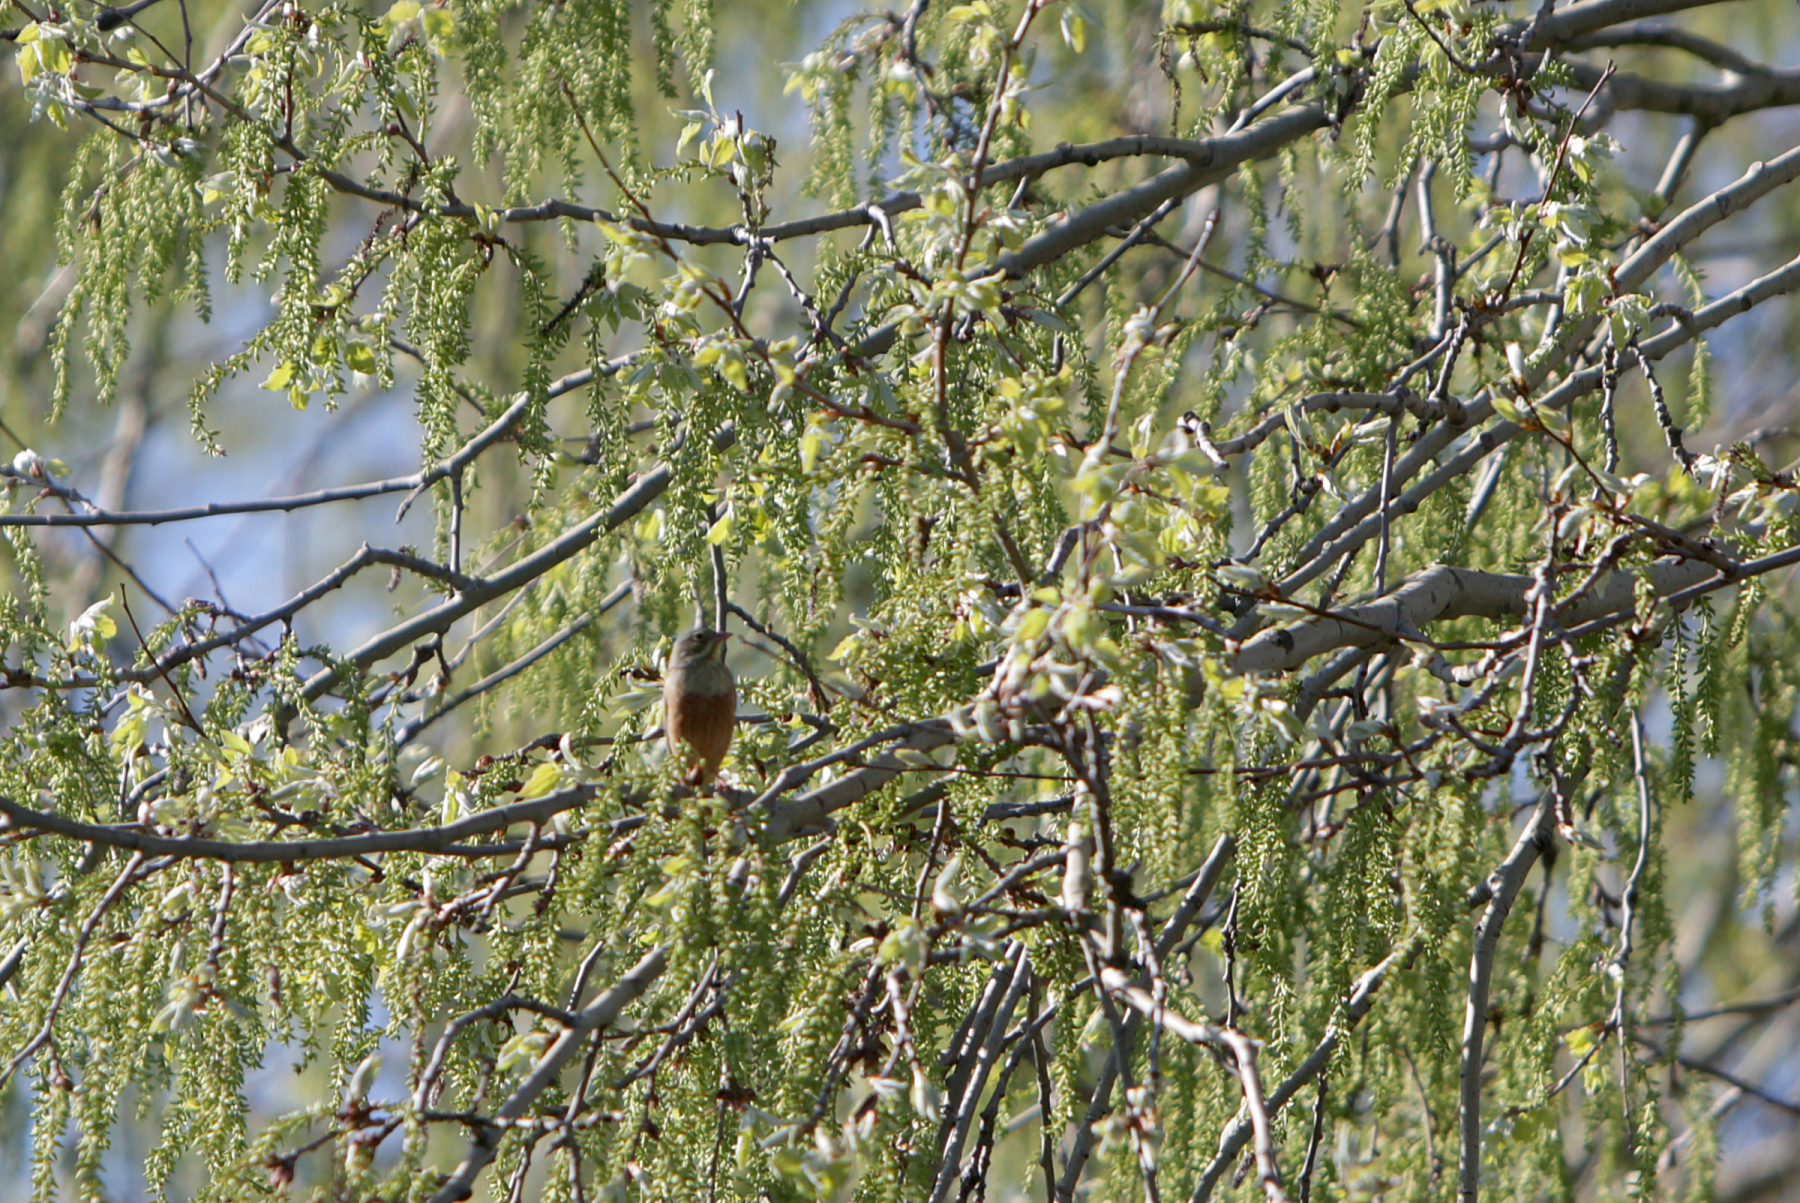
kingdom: Animalia
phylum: Chordata
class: Aves
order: Passeriformes
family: Emberizidae
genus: Emberiza
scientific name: Emberiza hortulana
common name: Ortolan bunting
